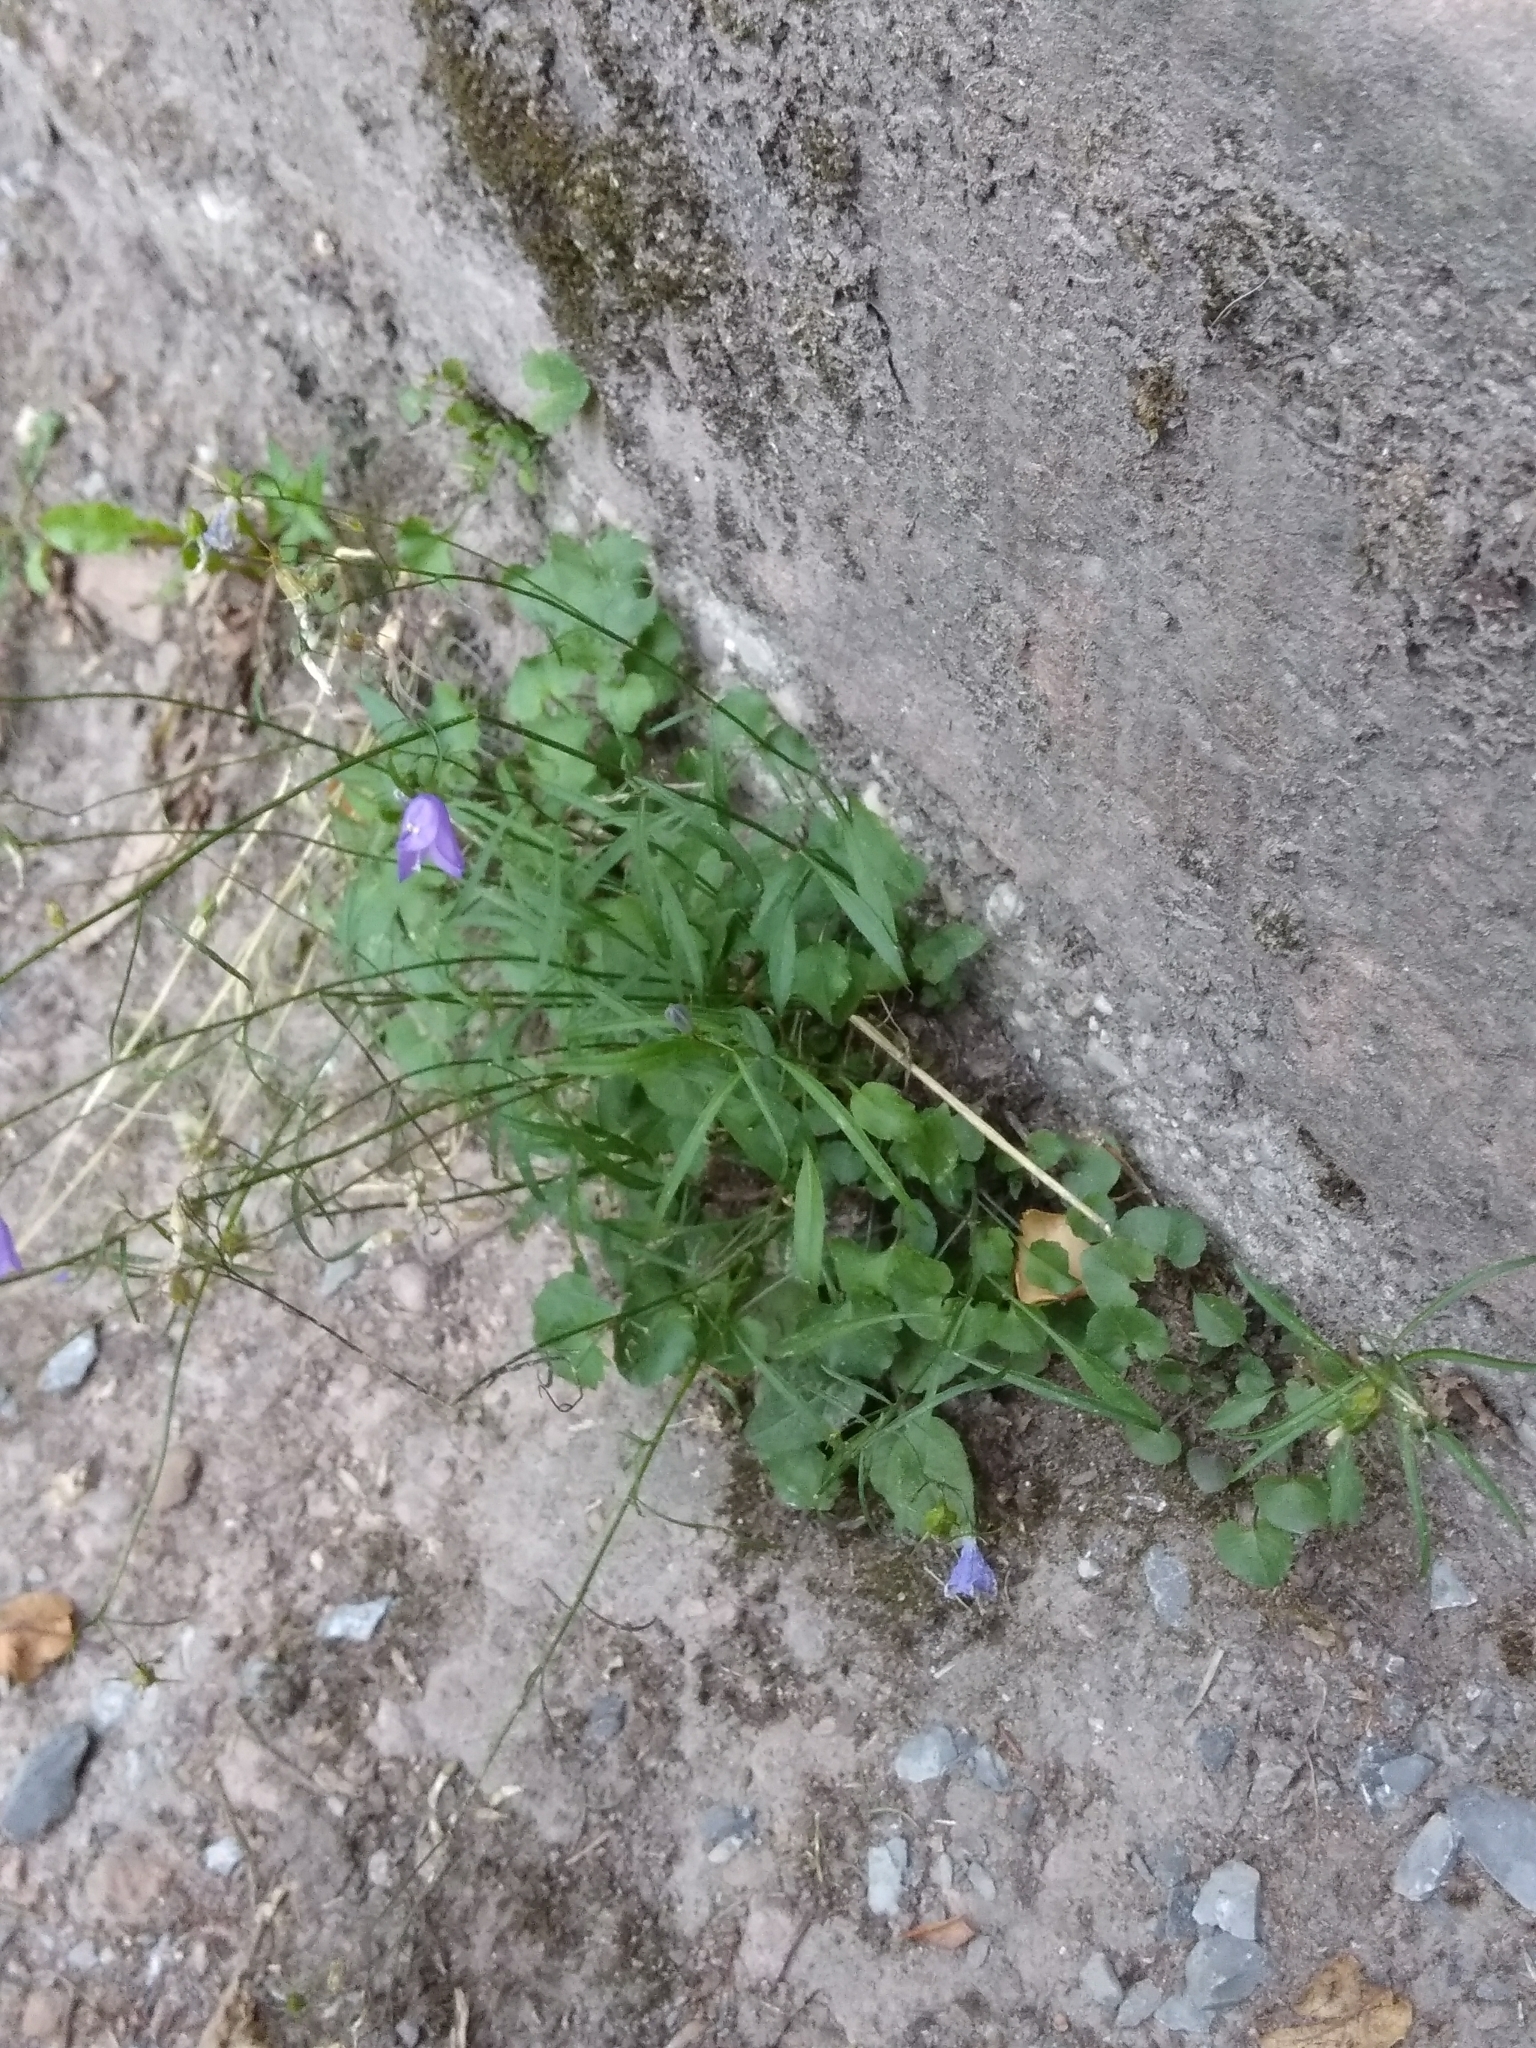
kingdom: Plantae
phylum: Tracheophyta
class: Magnoliopsida
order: Asterales
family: Campanulaceae
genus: Campanula
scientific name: Campanula rotundifolia
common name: Harebell
